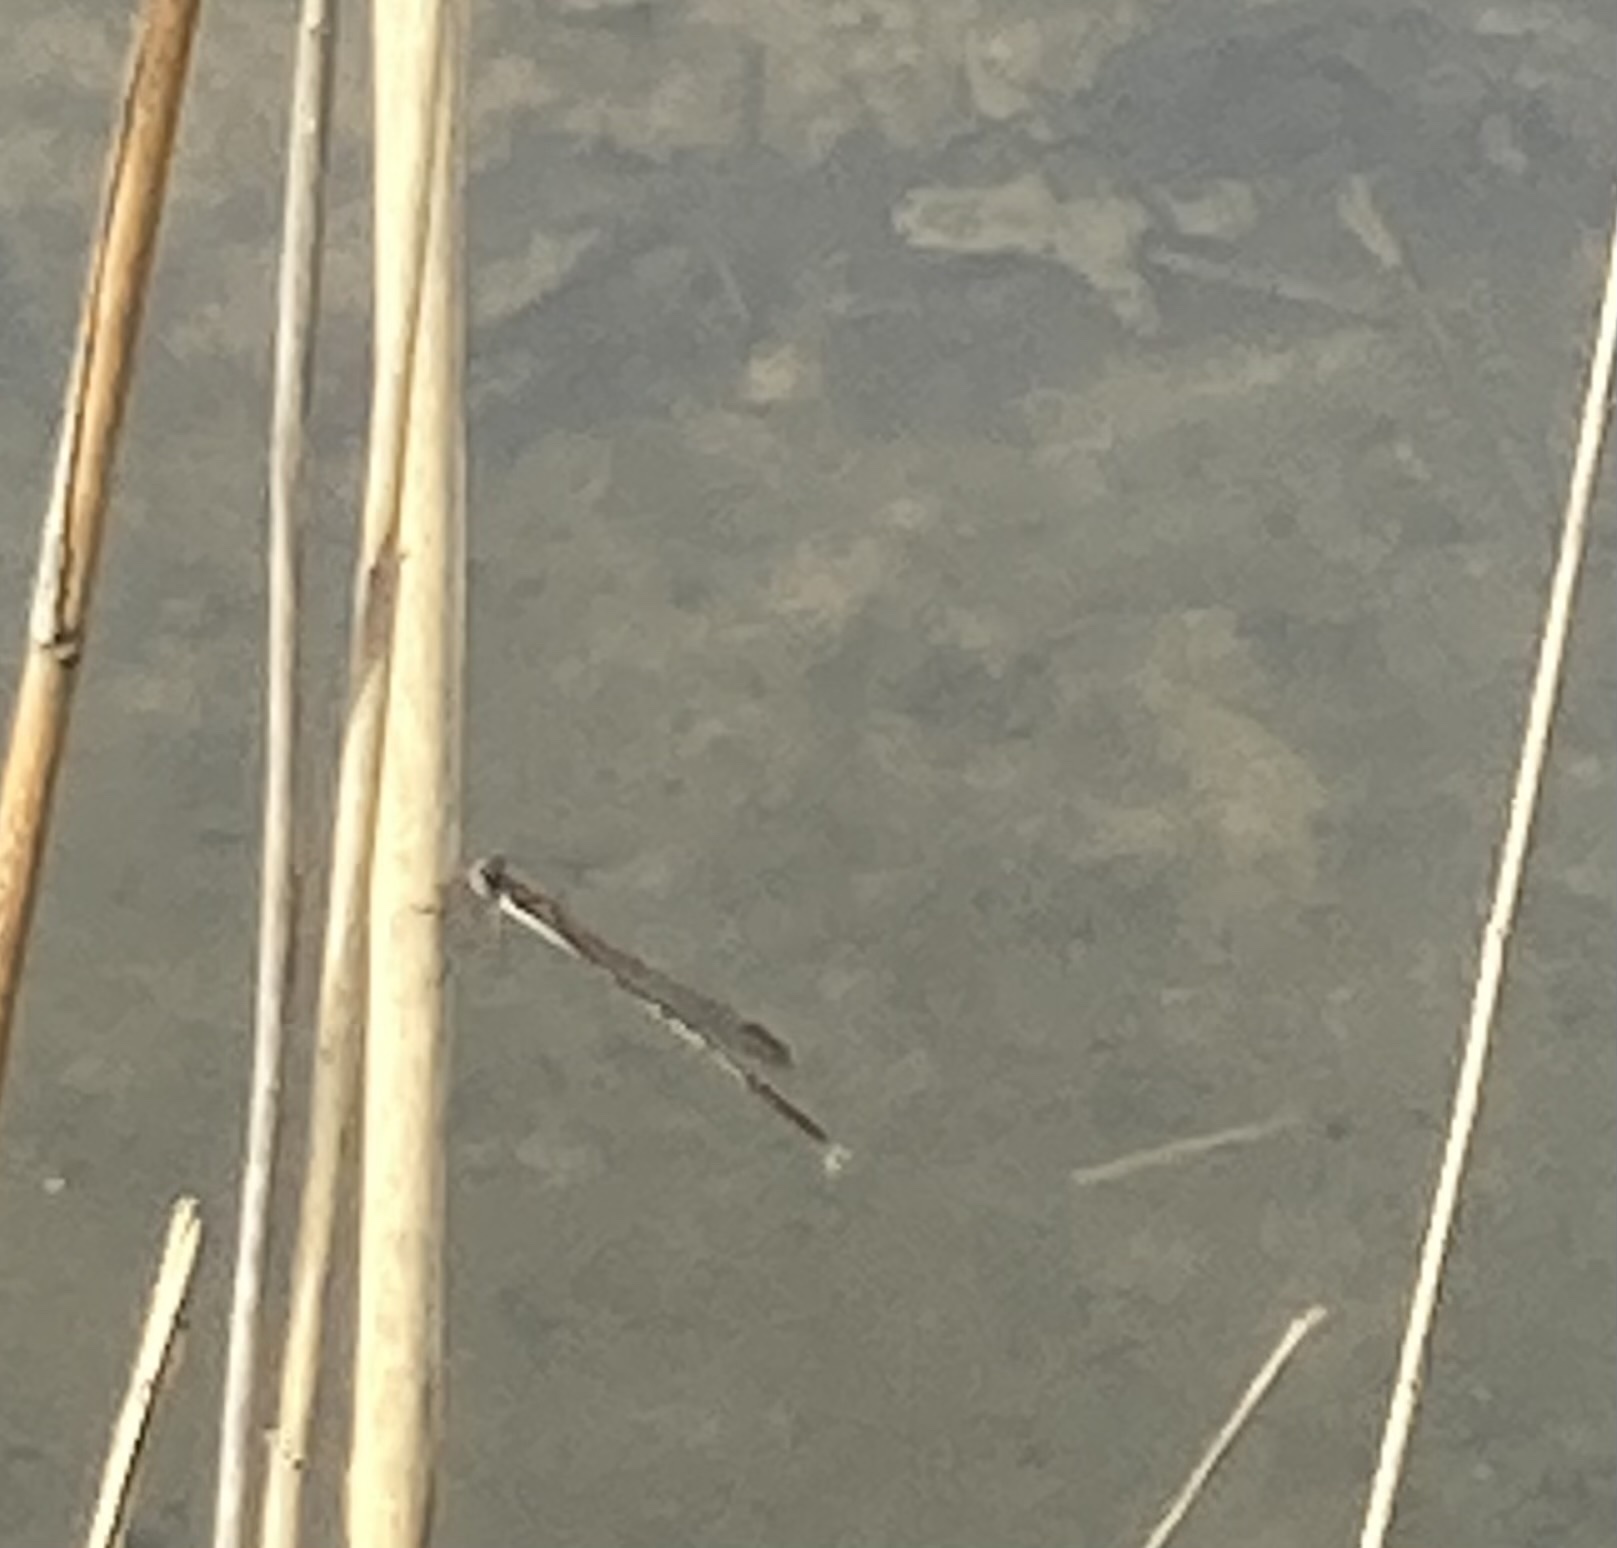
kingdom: Animalia
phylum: Arthropoda
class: Insecta
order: Odonata
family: Lestidae
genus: Sympecma
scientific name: Sympecma fusca
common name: Common winter damsel
